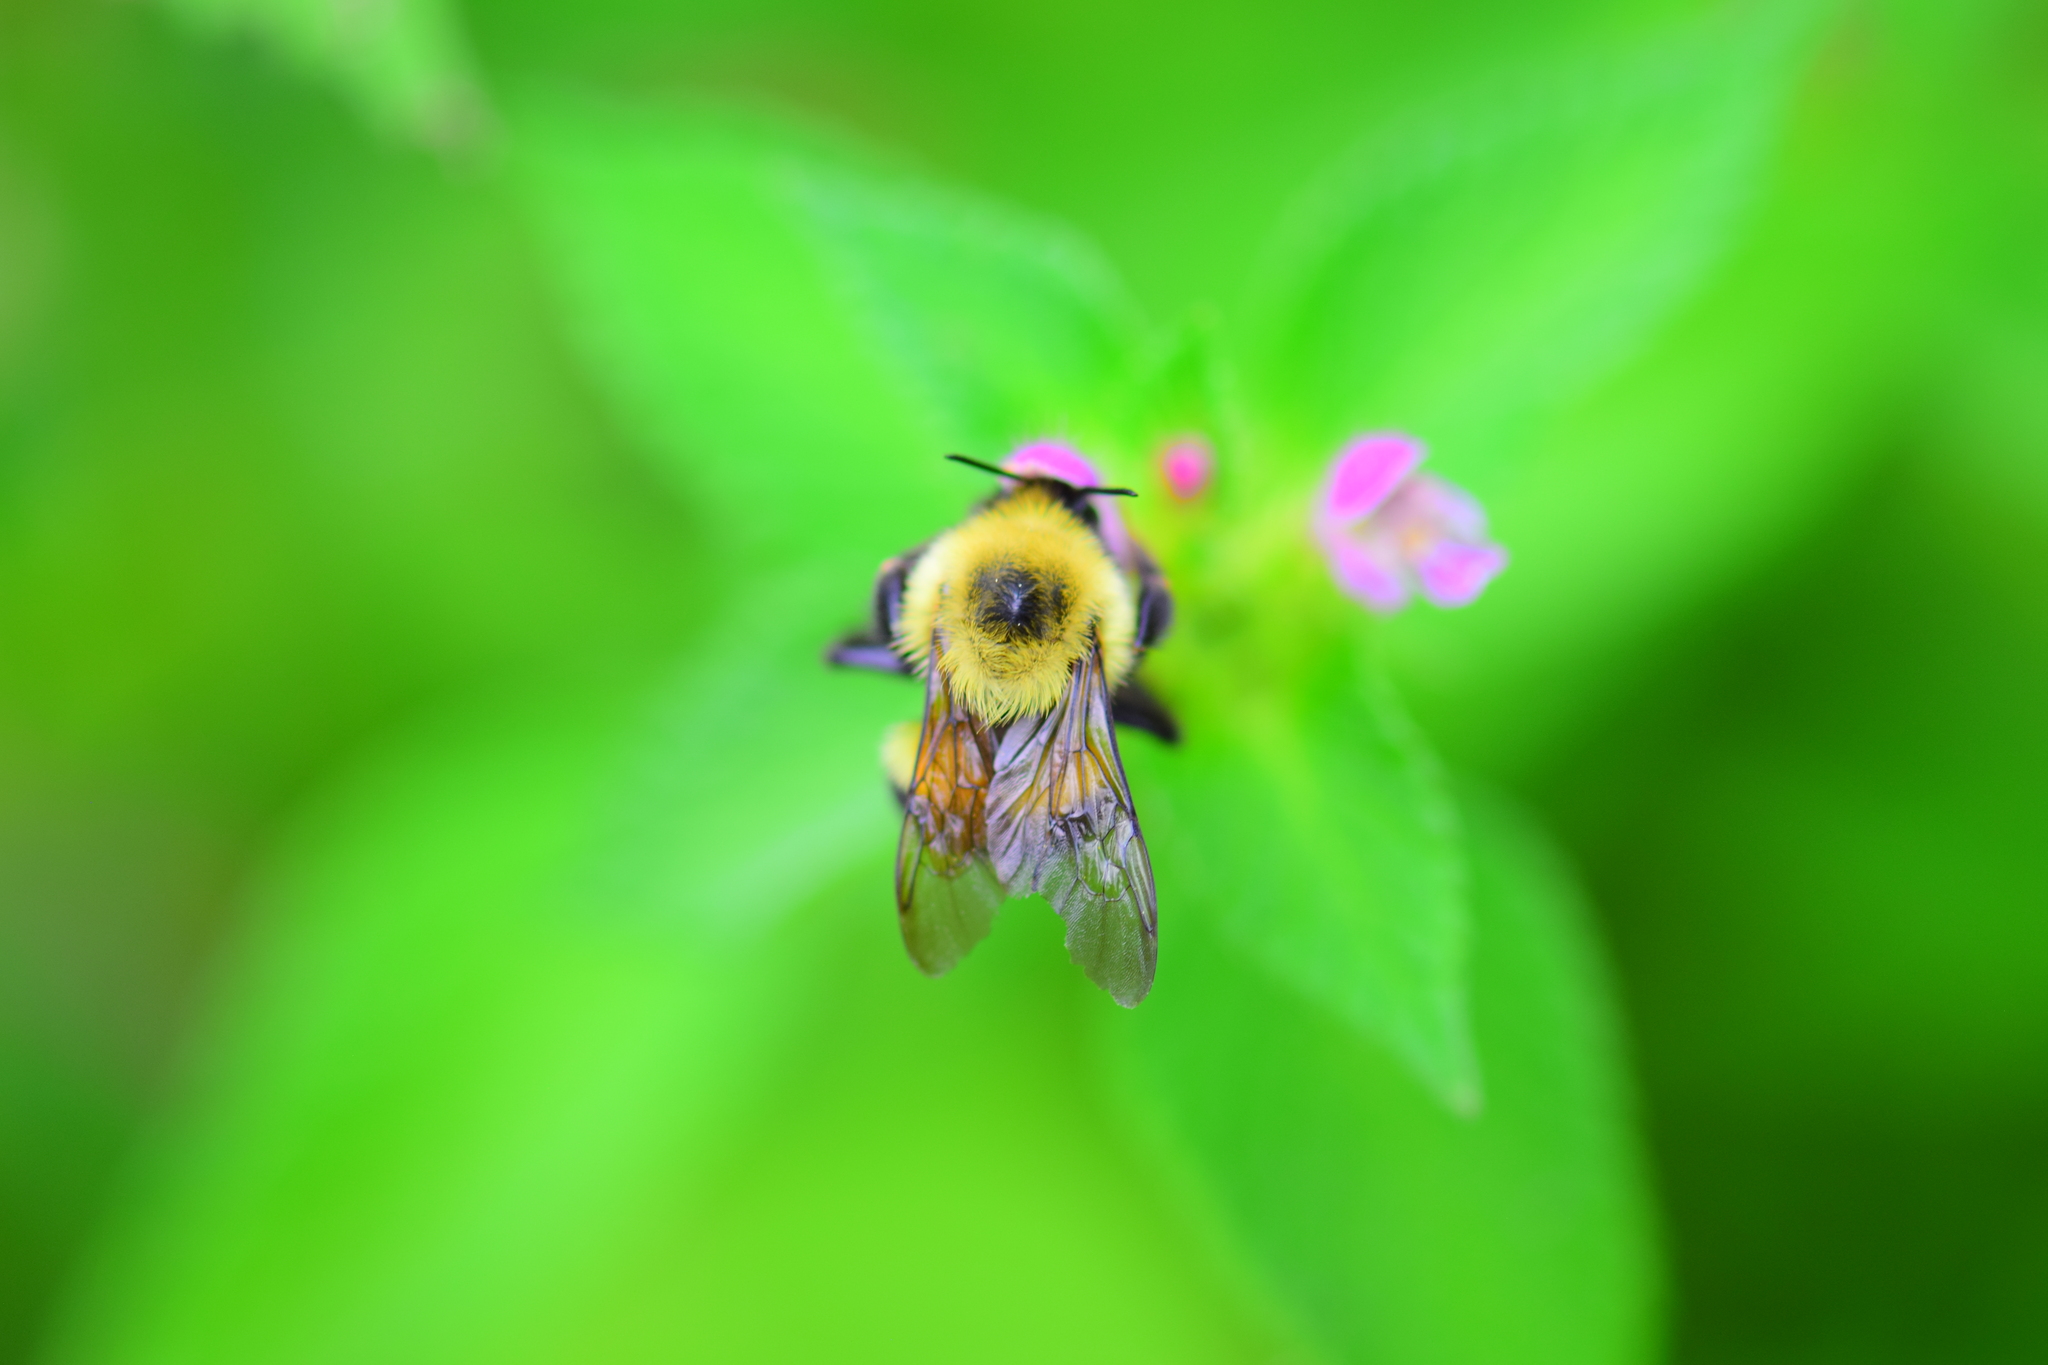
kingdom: Animalia
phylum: Arthropoda
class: Insecta
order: Hymenoptera
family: Apidae
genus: Bombus
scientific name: Bombus bimaculatus
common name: Two-spotted bumble bee
